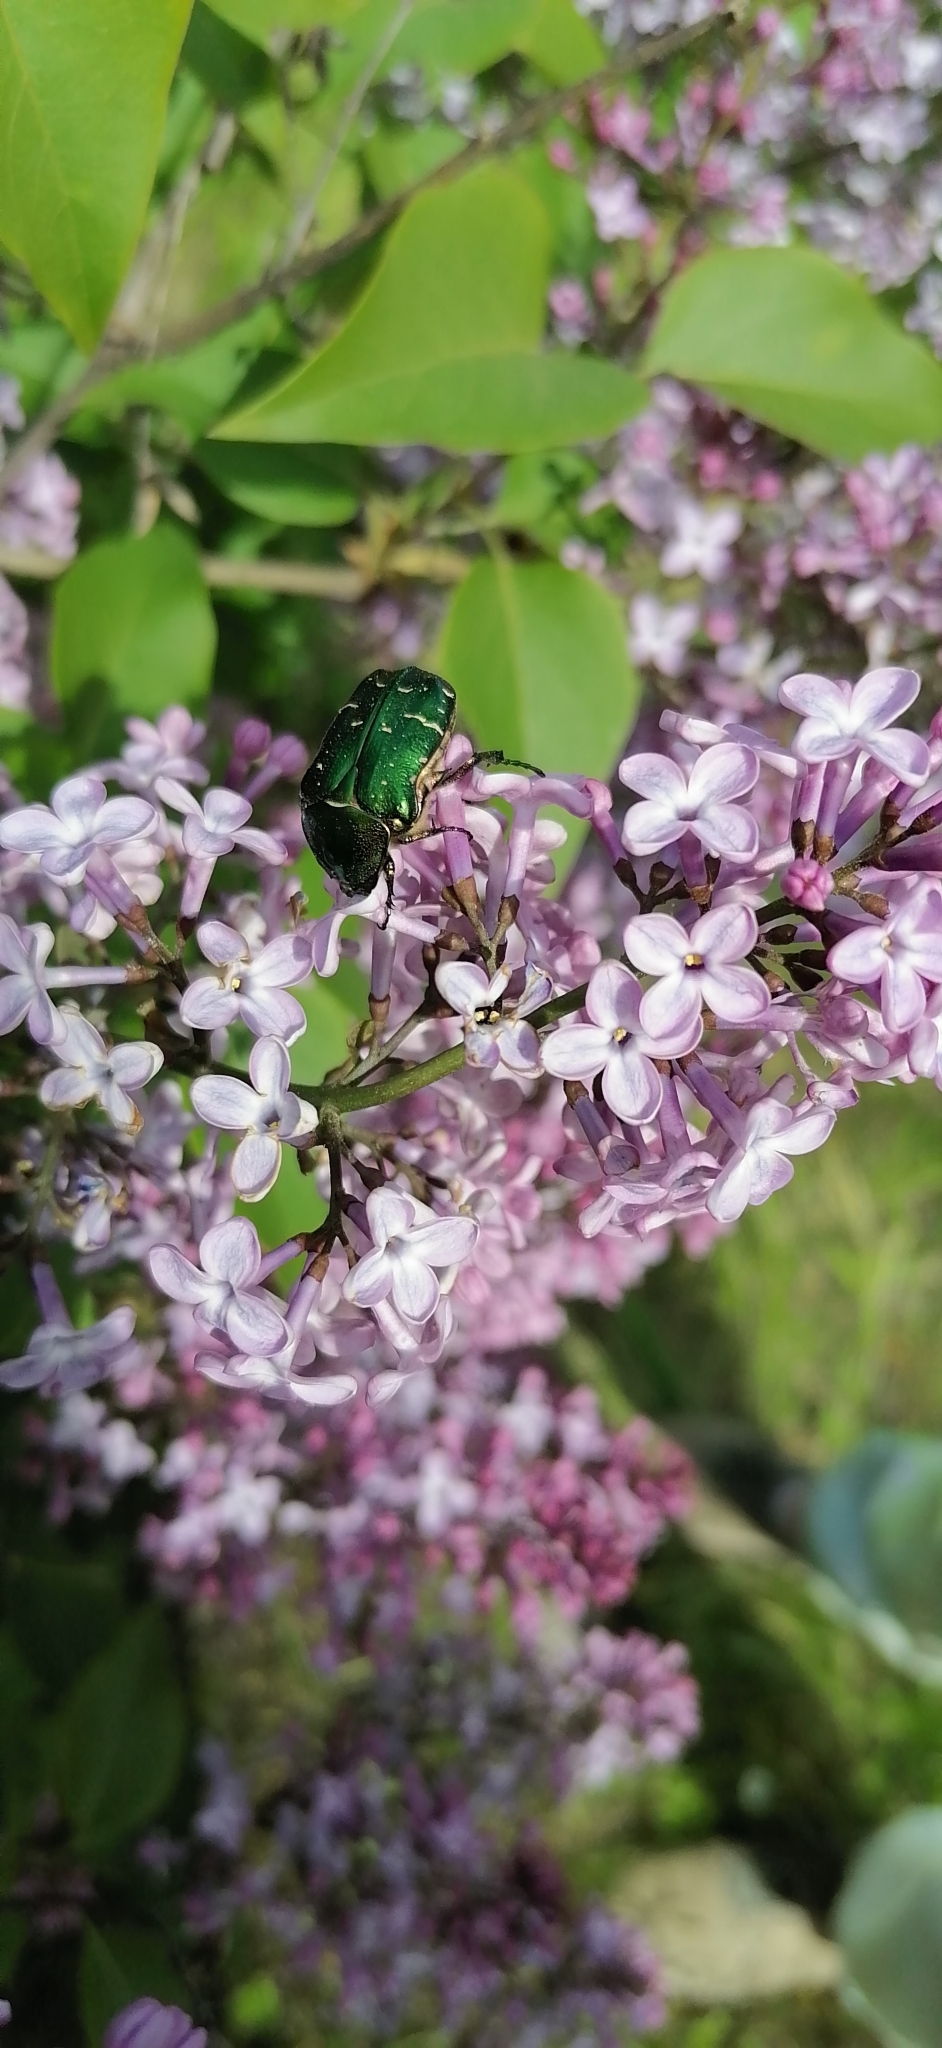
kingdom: Animalia
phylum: Arthropoda
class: Insecta
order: Coleoptera
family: Scarabaeidae
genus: Cetonia
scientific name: Cetonia aurata
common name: Rose chafer
